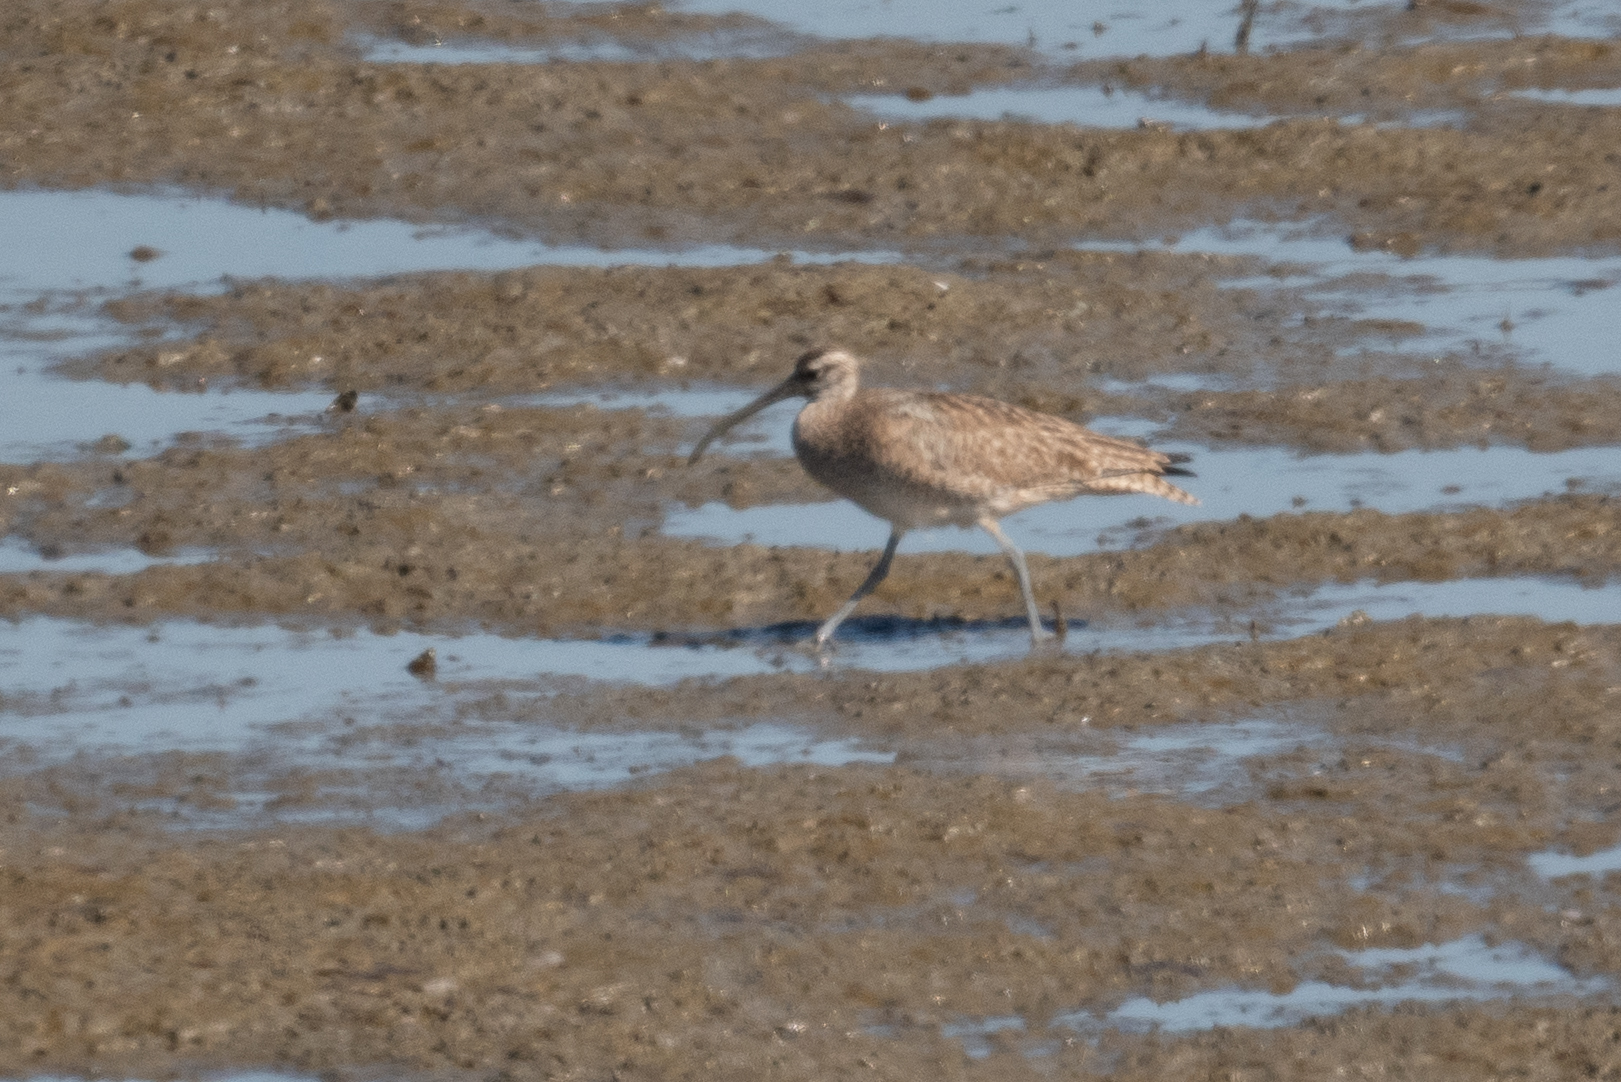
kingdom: Animalia
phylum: Chordata
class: Aves
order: Charadriiformes
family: Scolopacidae
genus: Numenius
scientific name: Numenius phaeopus
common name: Whimbrel
